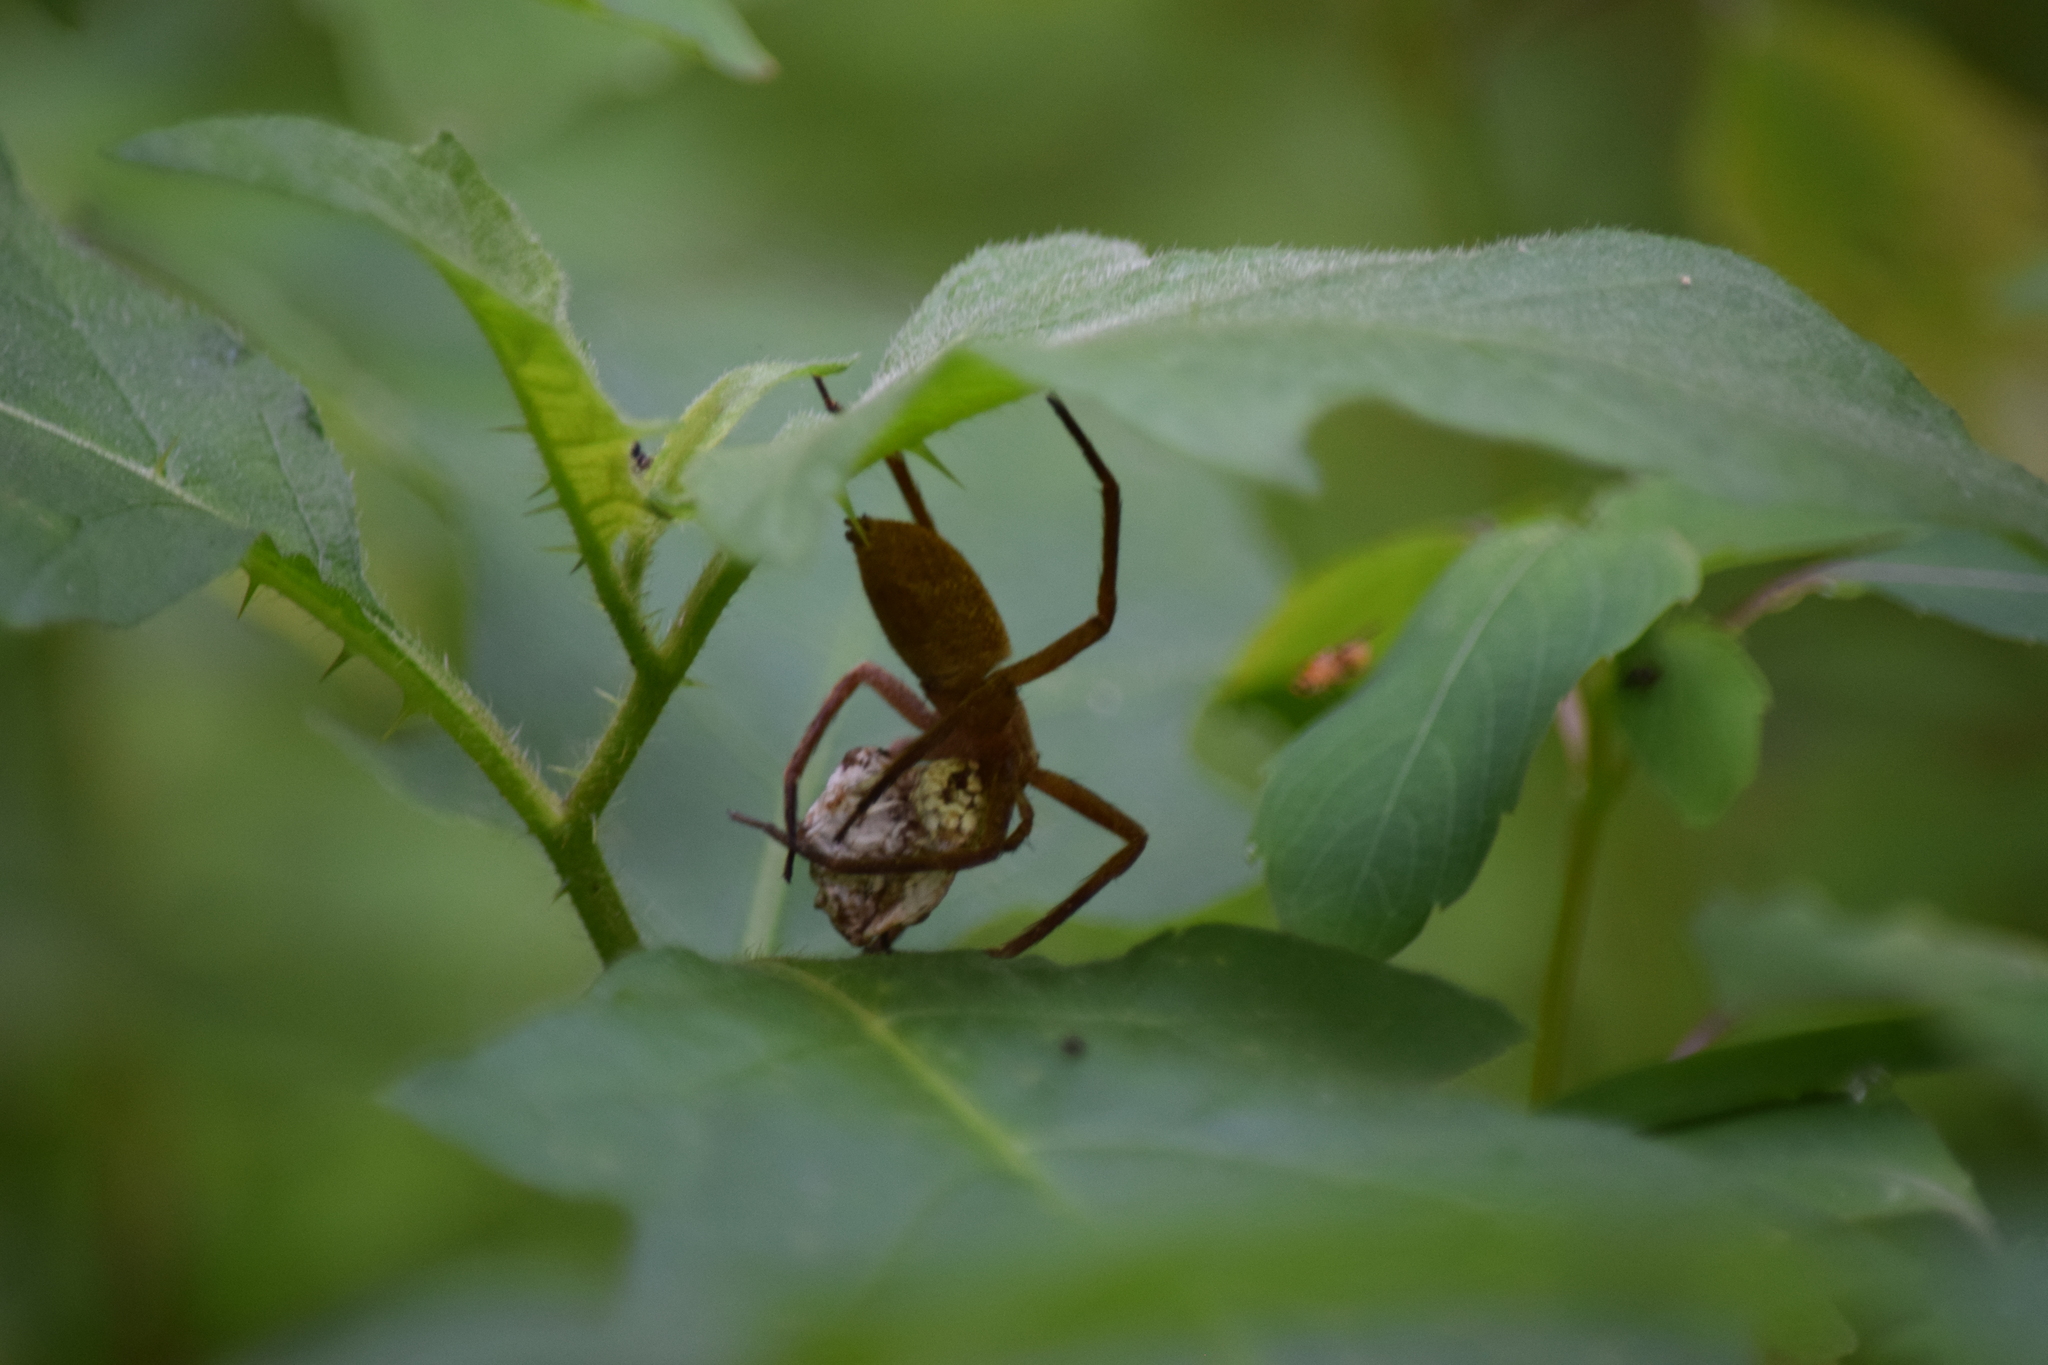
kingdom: Animalia
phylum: Arthropoda
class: Arachnida
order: Araneae
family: Pisauridae
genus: Pisaurina
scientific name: Pisaurina mira
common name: American nursery web spider
